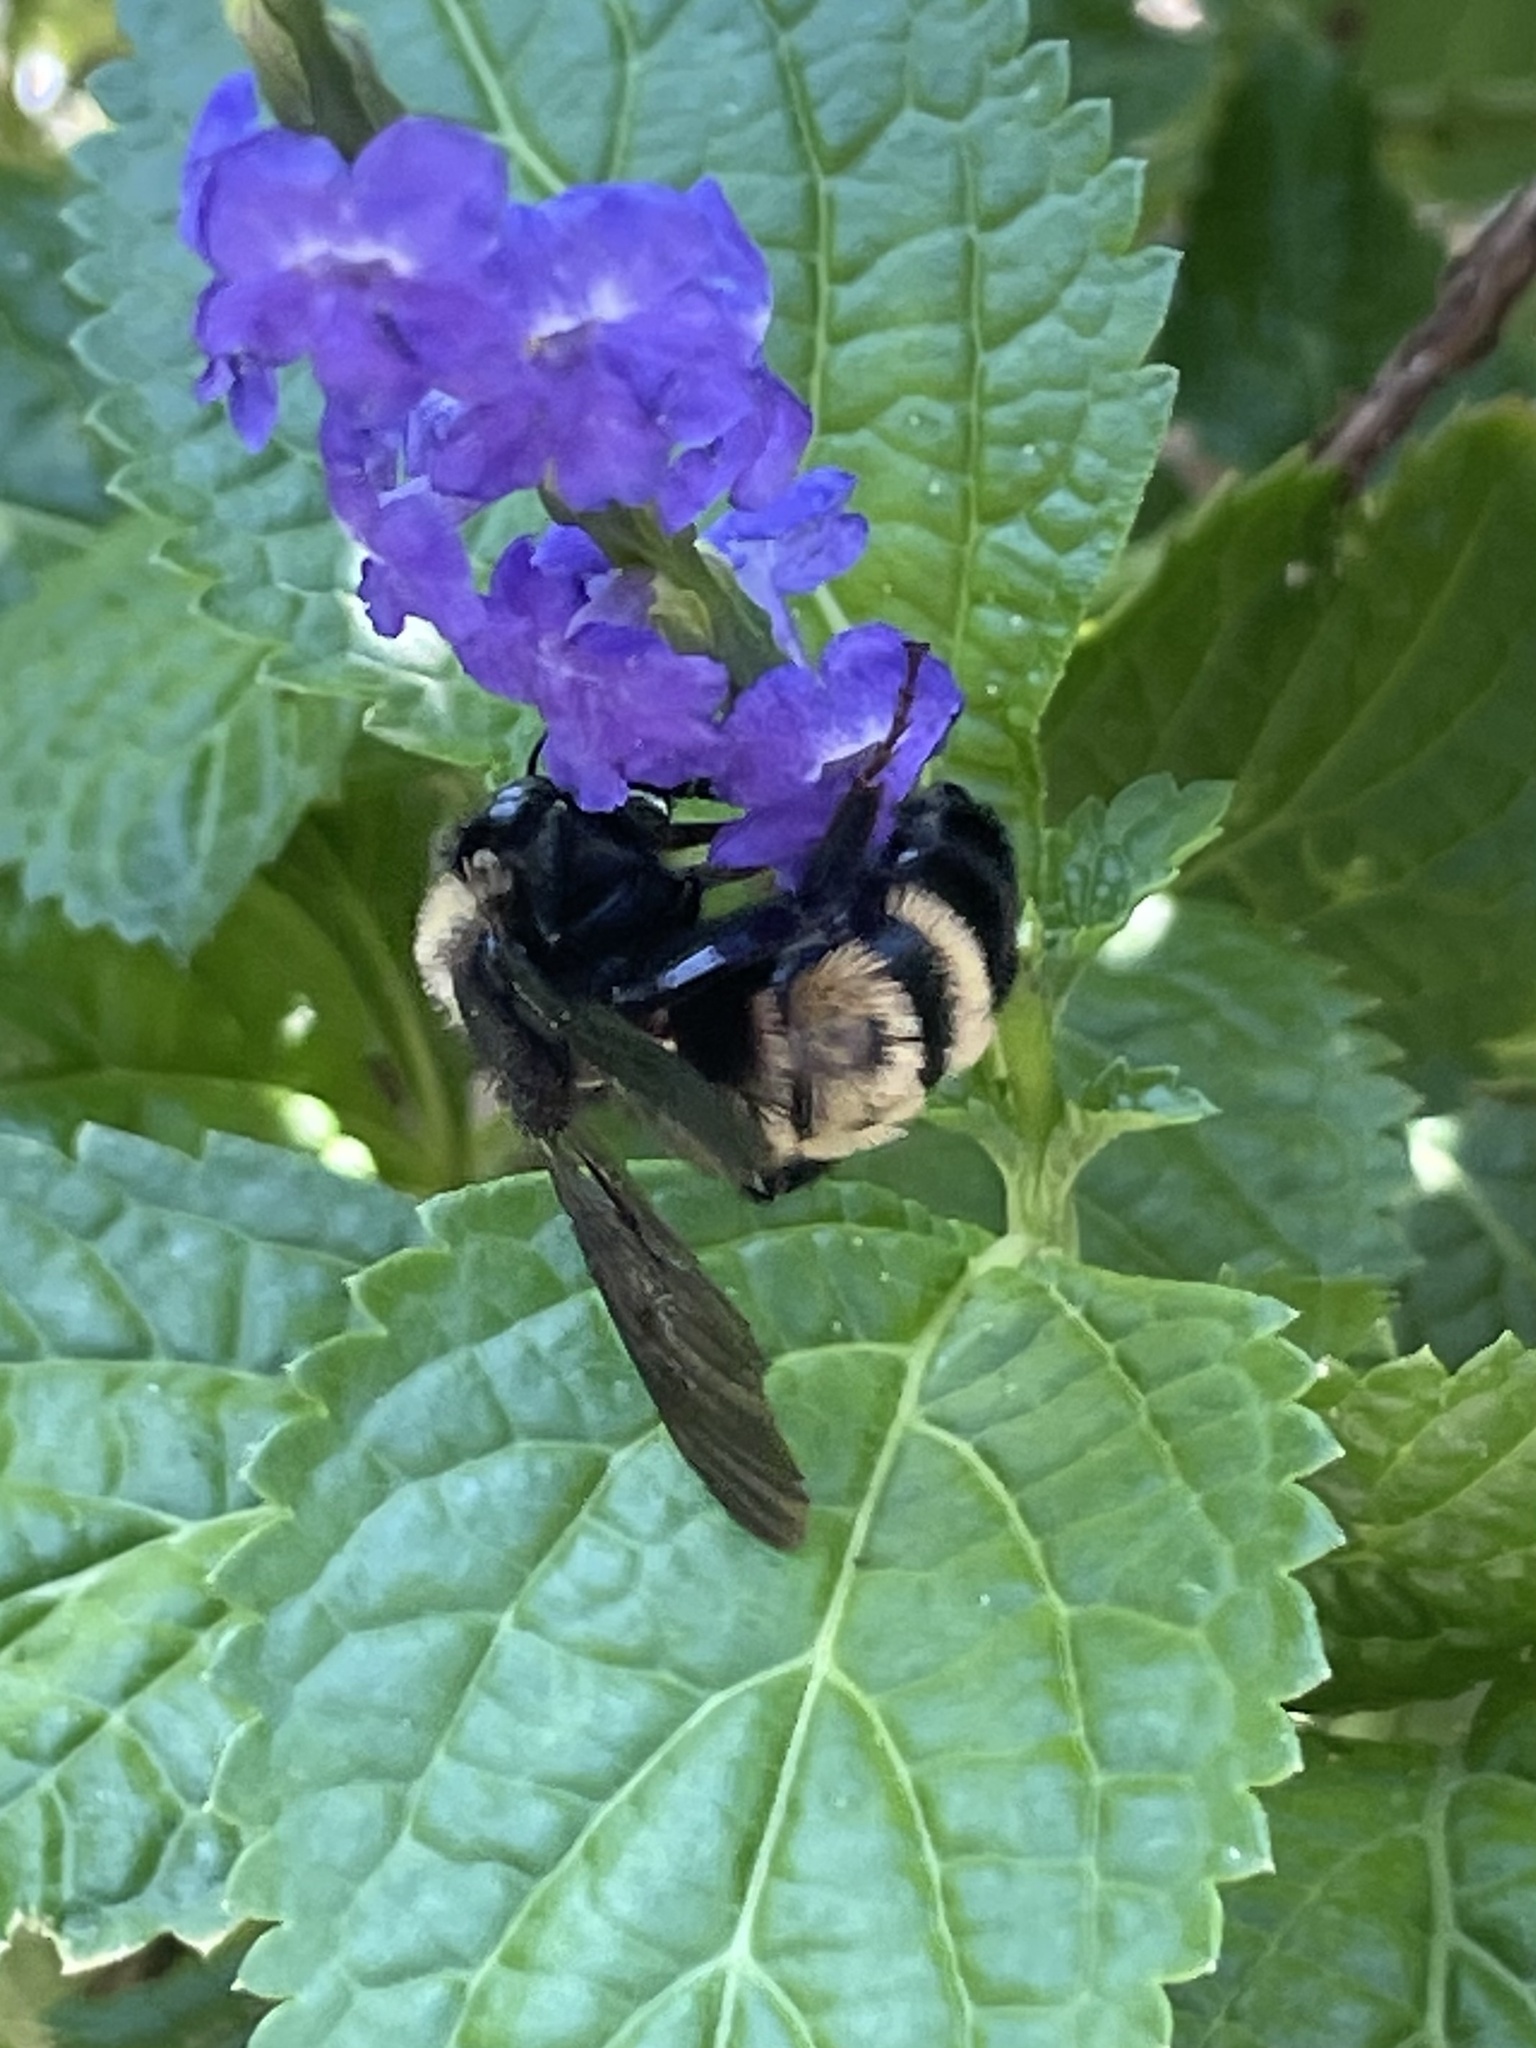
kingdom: Animalia
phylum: Arthropoda
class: Insecta
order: Hymenoptera
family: Apidae
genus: Bombus
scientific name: Bombus pensylvanicus
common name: Bumble bee
